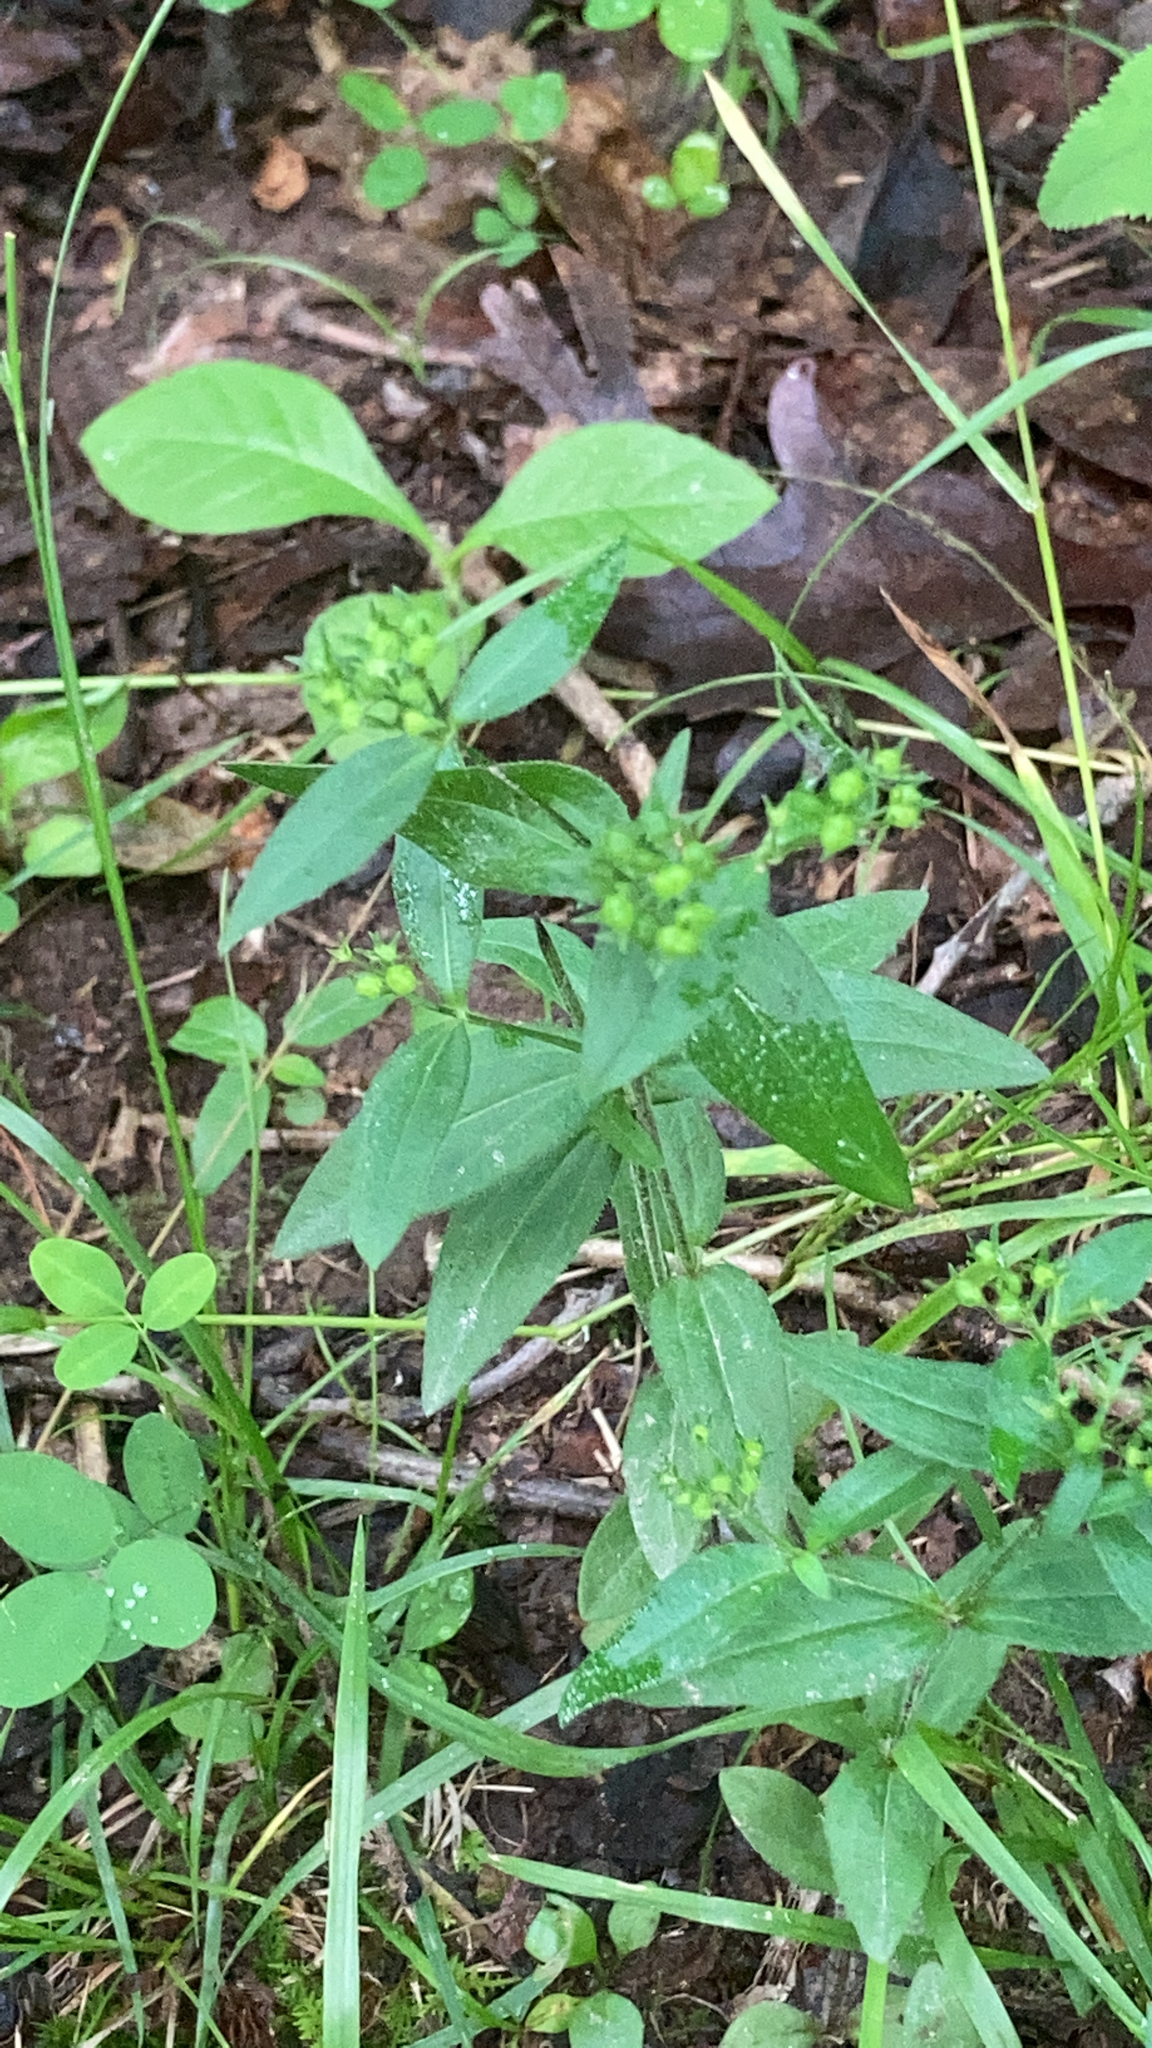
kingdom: Plantae
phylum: Tracheophyta
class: Magnoliopsida
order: Gentianales
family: Rubiaceae
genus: Houstonia
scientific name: Houstonia purpurea
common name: Summer bluet
